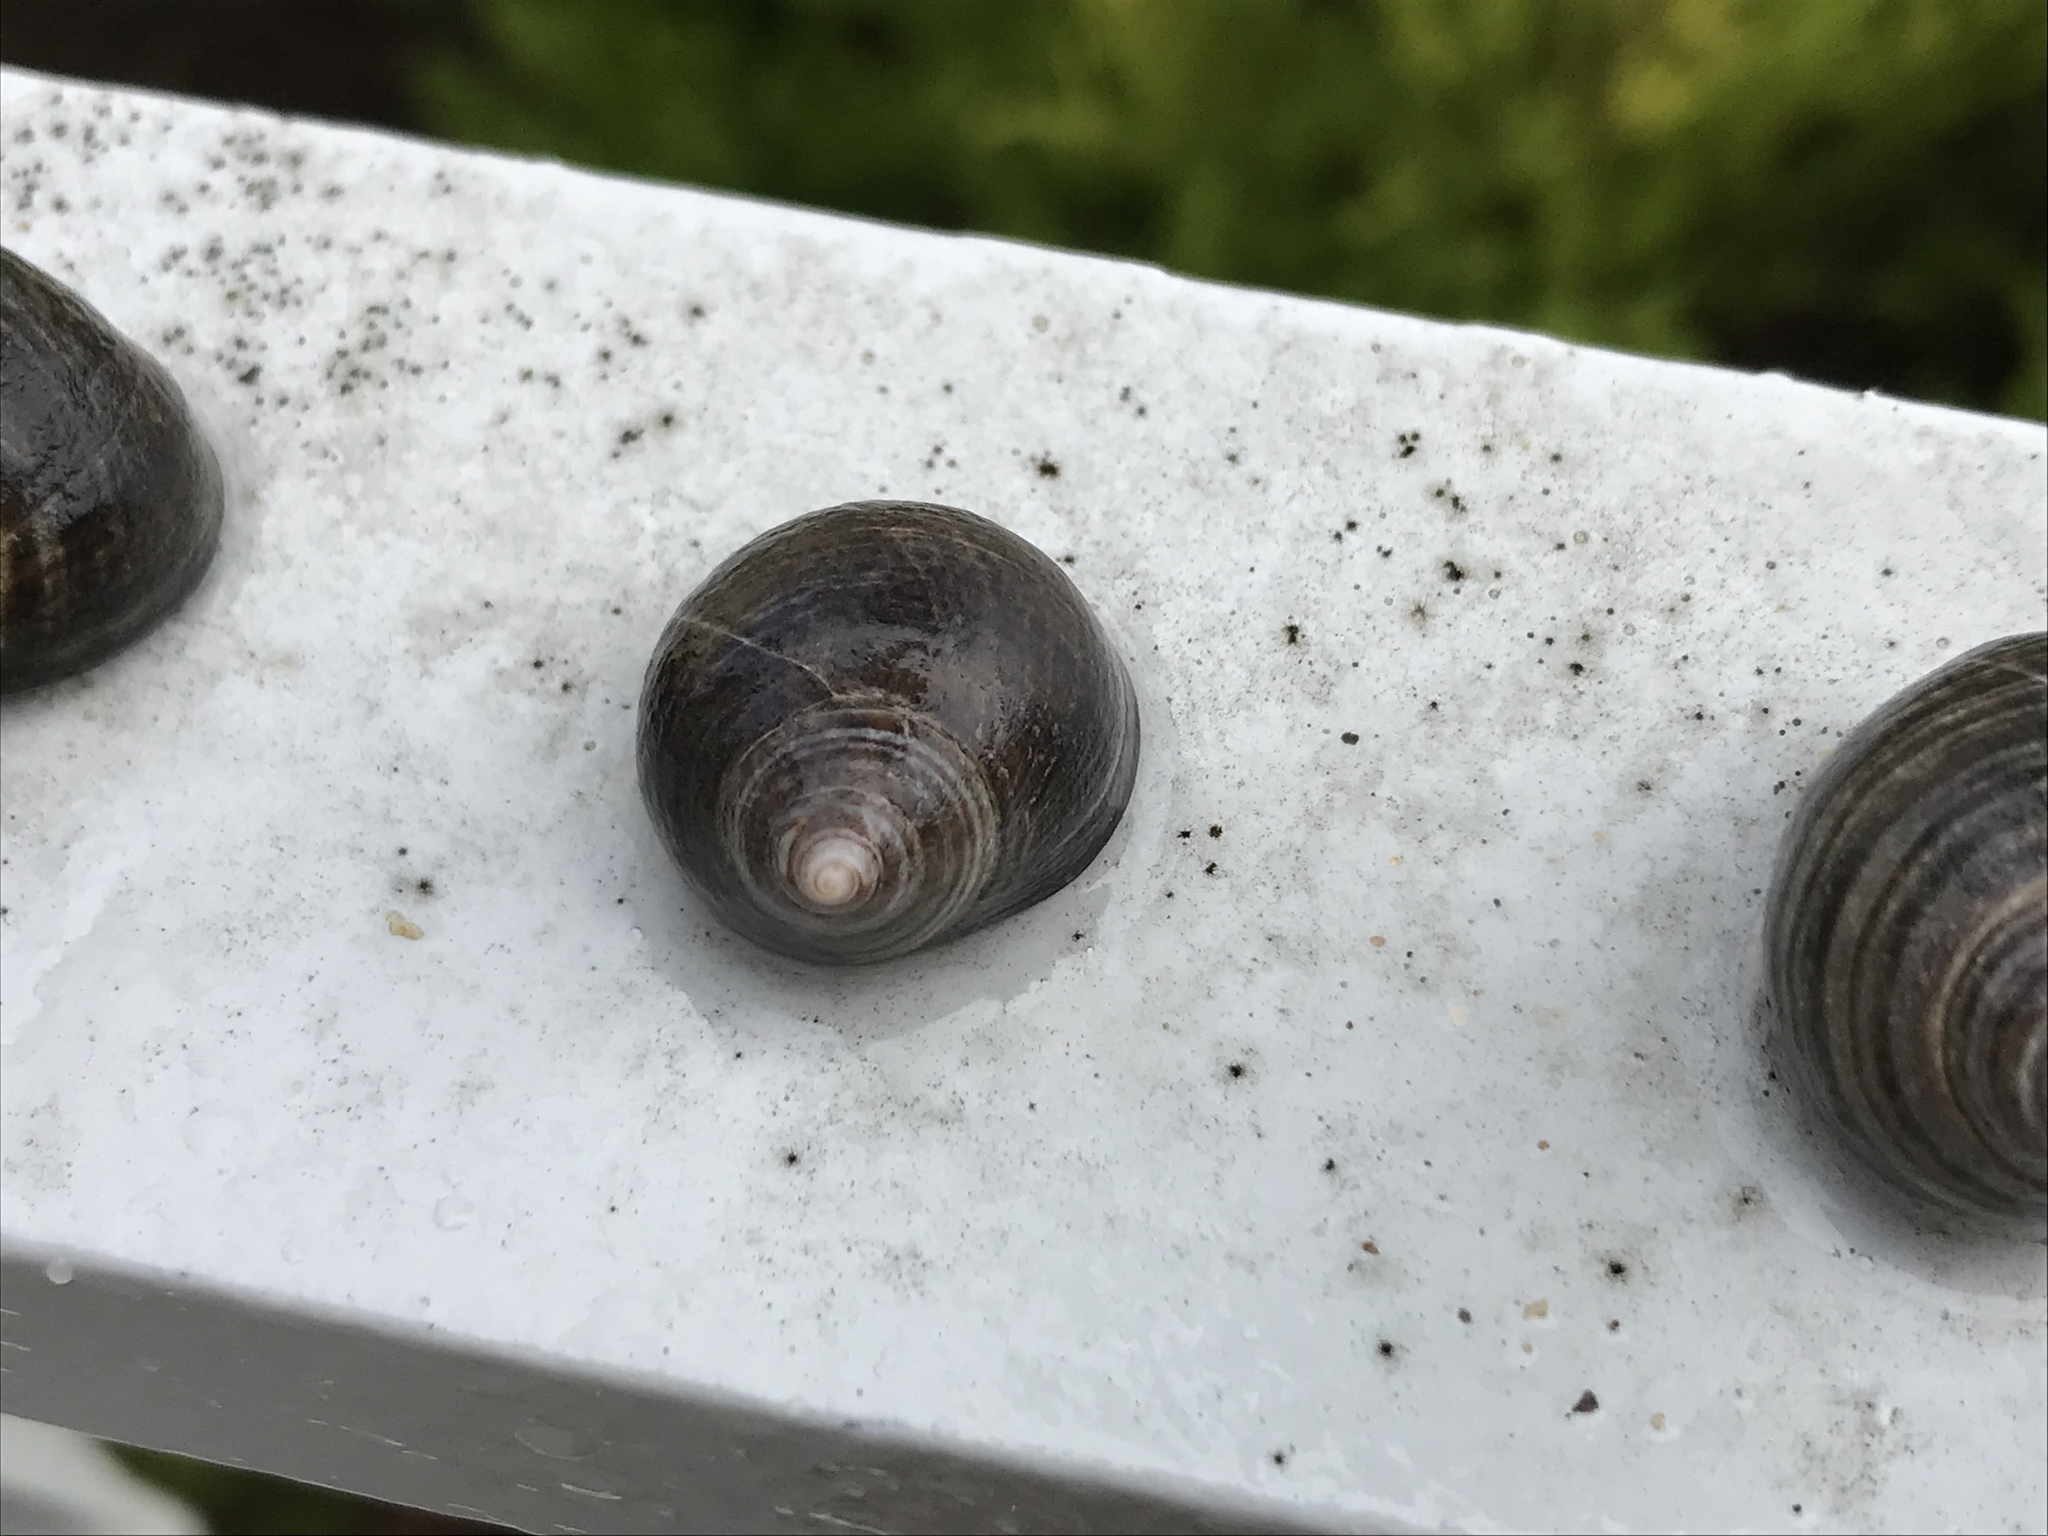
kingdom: Animalia
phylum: Mollusca
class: Gastropoda
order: Littorinimorpha
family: Littorinidae
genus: Littorina
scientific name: Littorina littorea
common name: Common periwinkle
